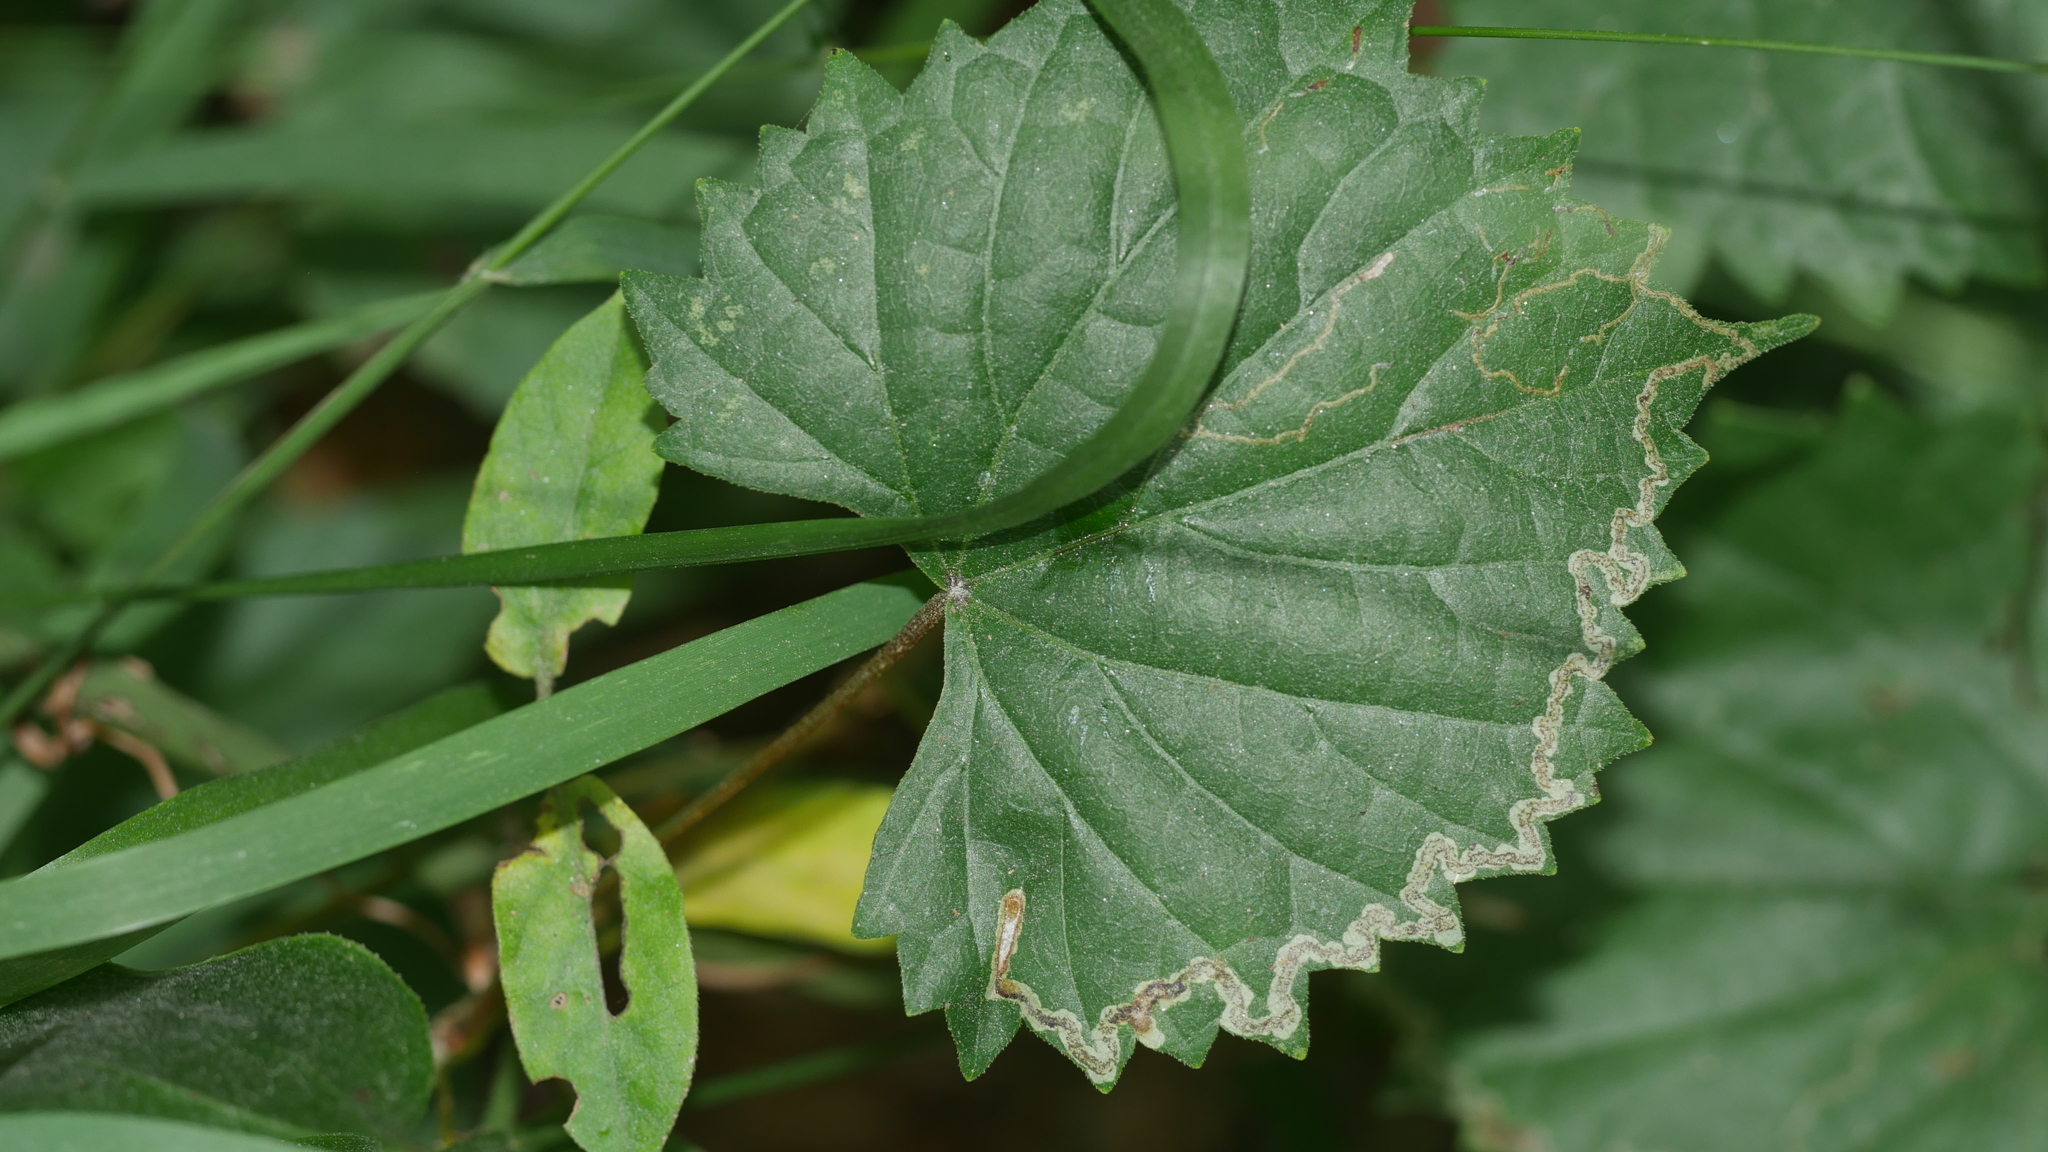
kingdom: Animalia
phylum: Arthropoda
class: Insecta
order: Lepidoptera
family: Gracillariidae
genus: Phyllocnistis
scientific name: Phyllocnistis vitifoliella
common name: Grape leaf-miner moth
